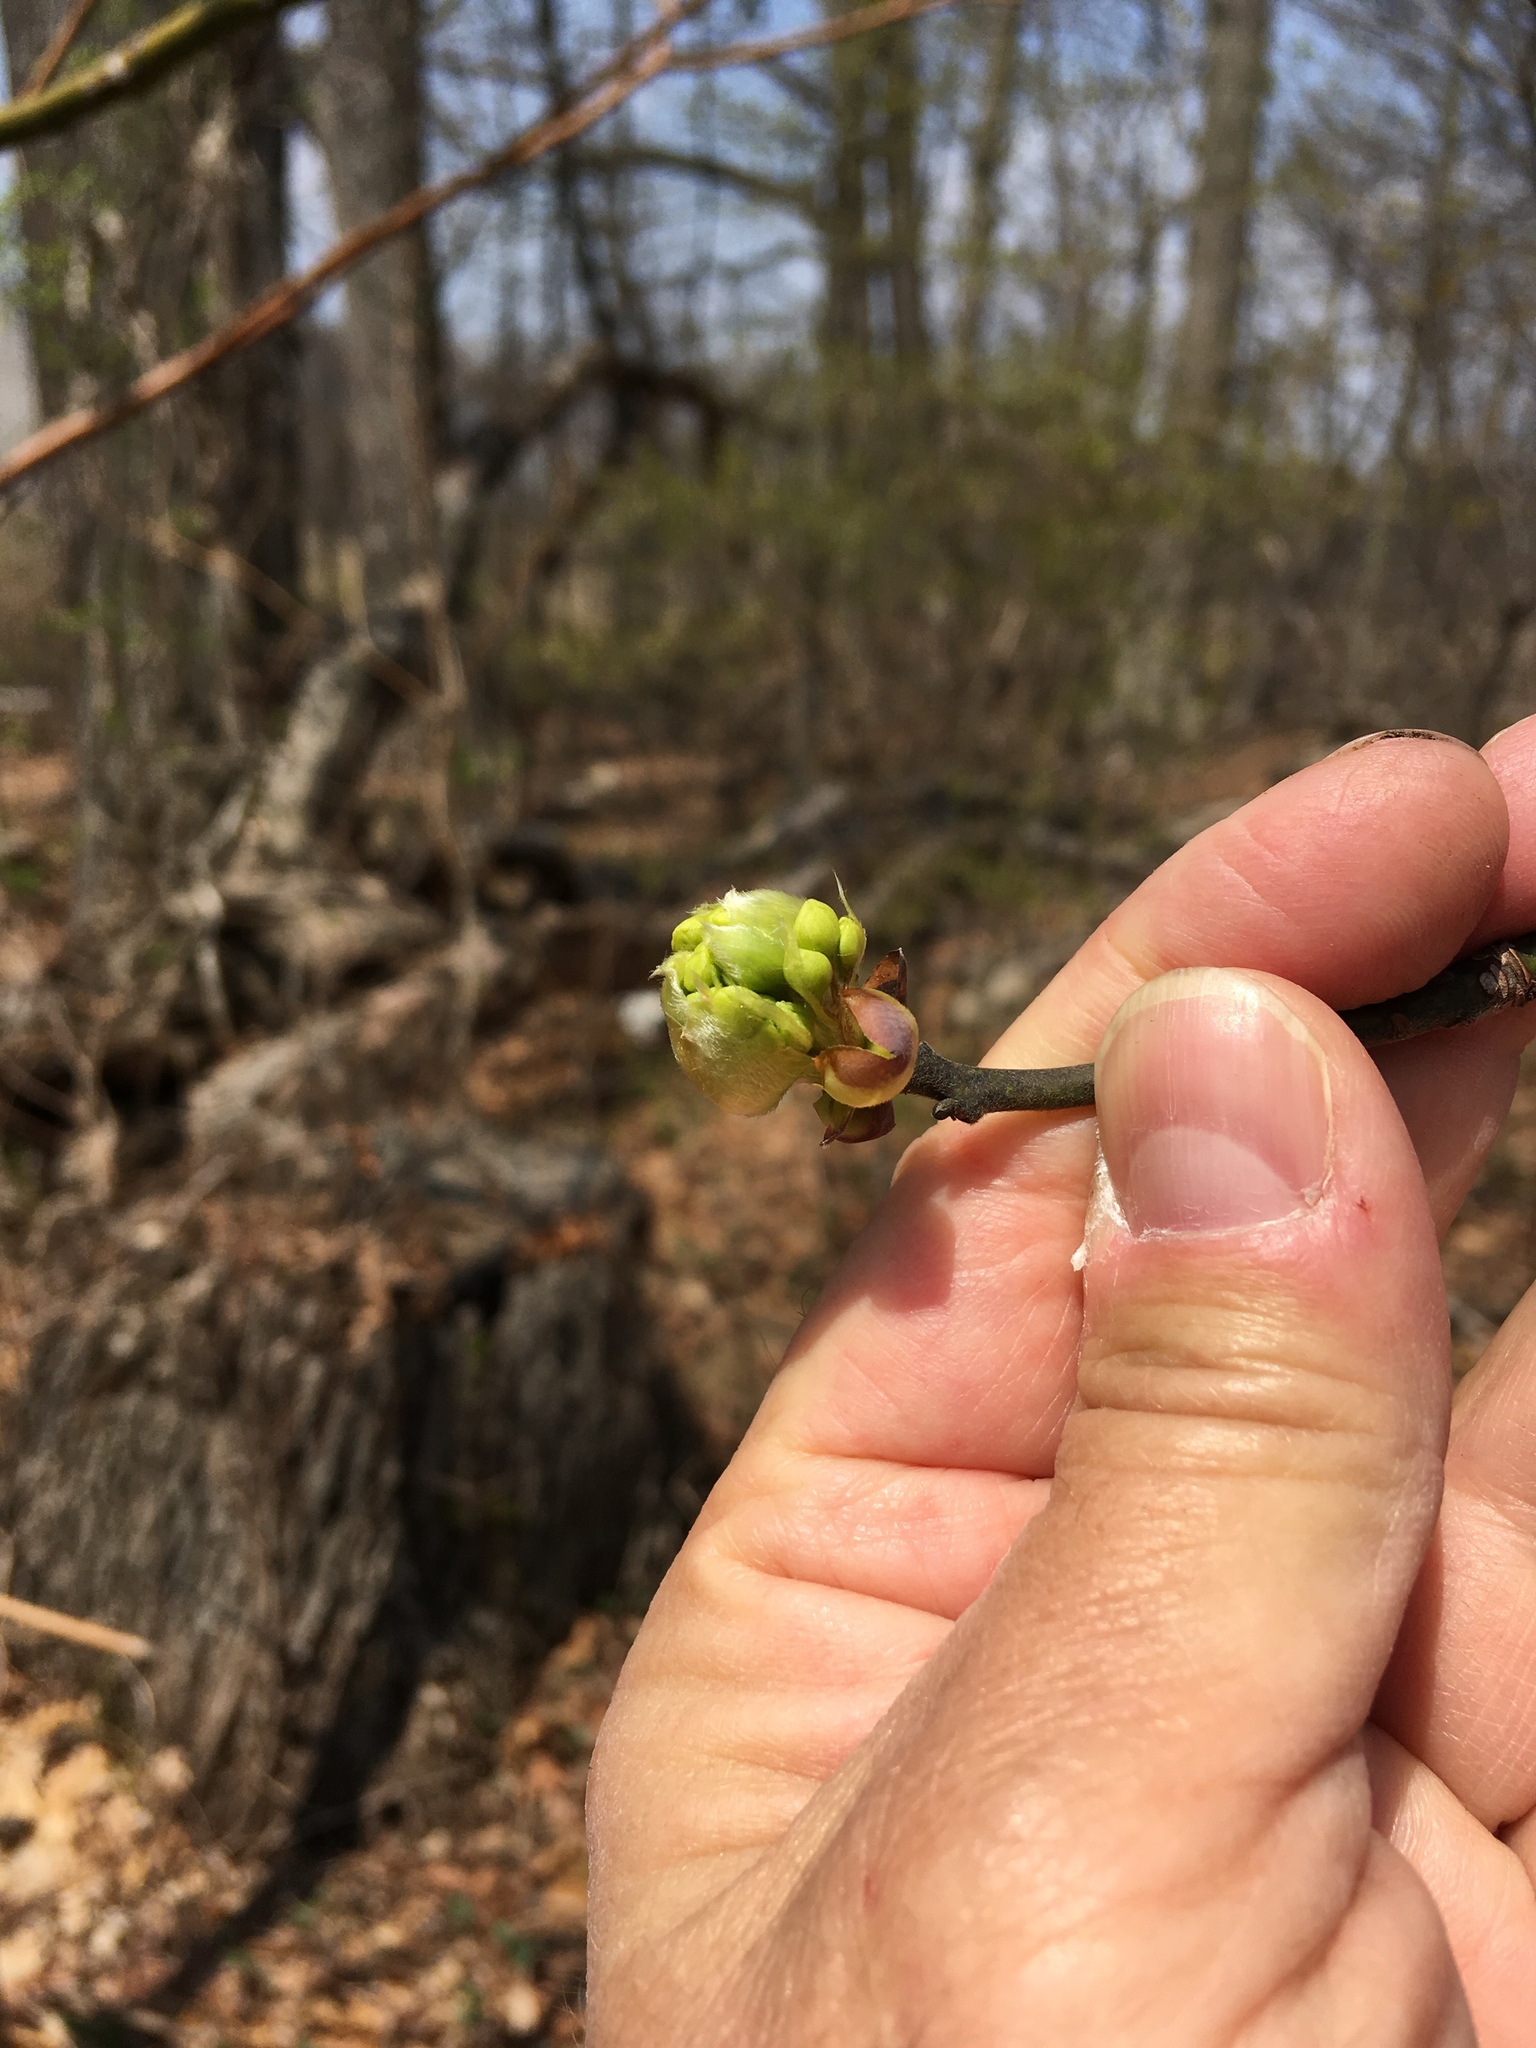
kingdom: Plantae
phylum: Tracheophyta
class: Magnoliopsida
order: Laurales
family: Lauraceae
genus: Lindera
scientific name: Lindera benzoin
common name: Spicebush
